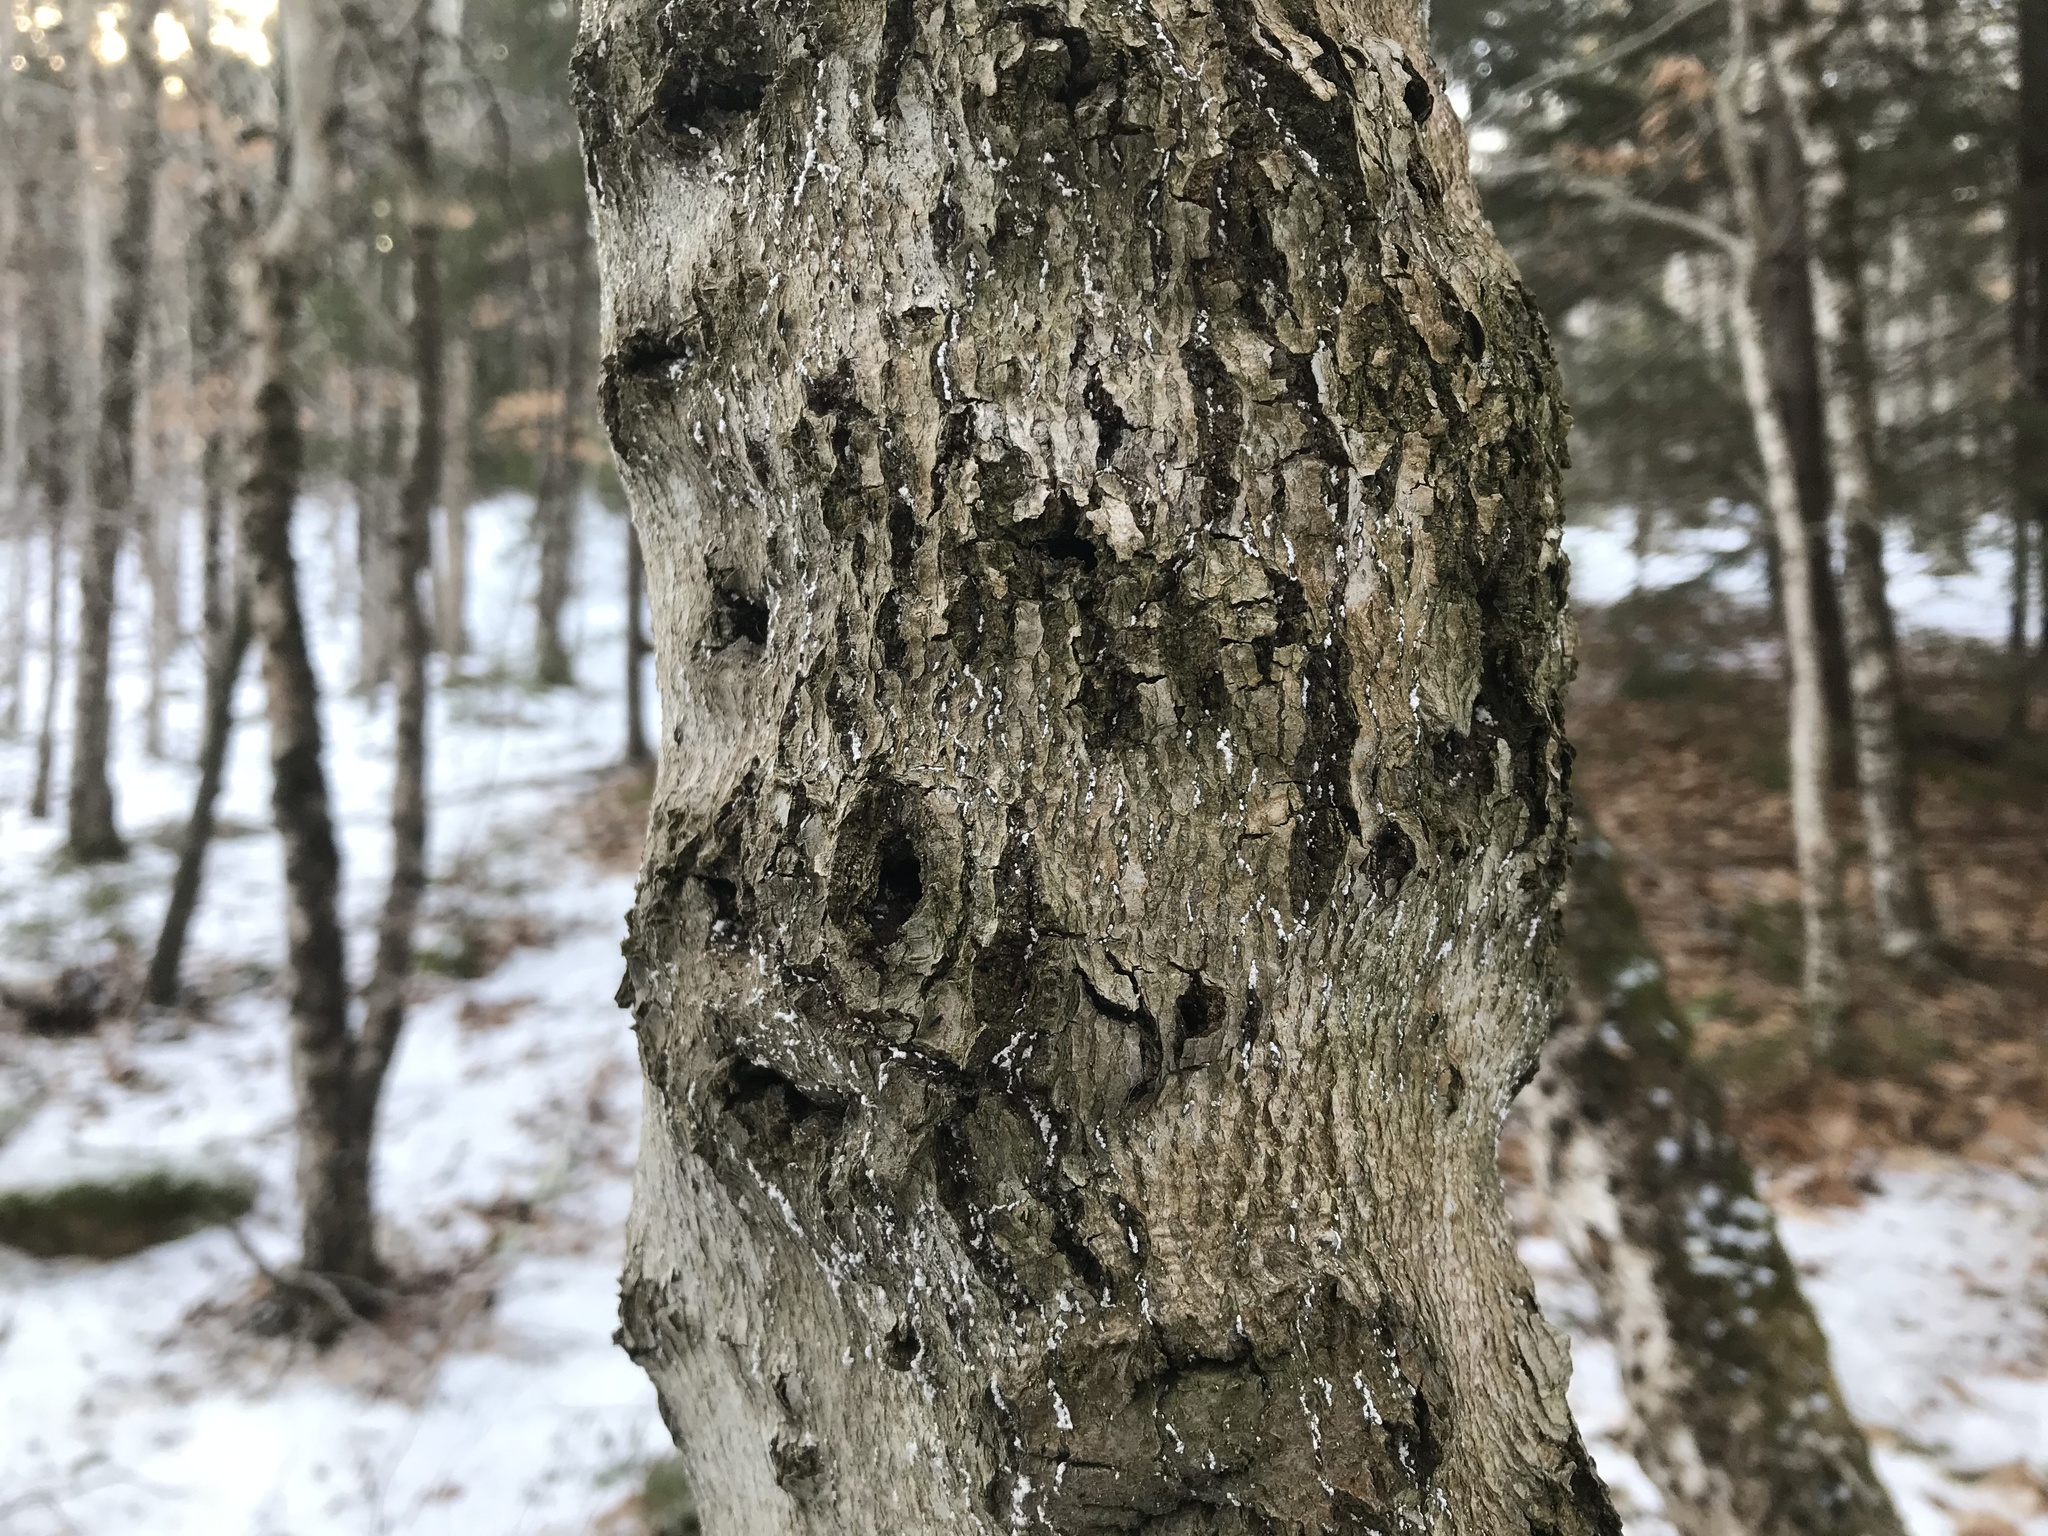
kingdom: Animalia
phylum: Arthropoda
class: Insecta
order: Hemiptera
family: Eriococcidae
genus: Cryptococcus
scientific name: Cryptococcus fagisuga
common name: Beech scale
